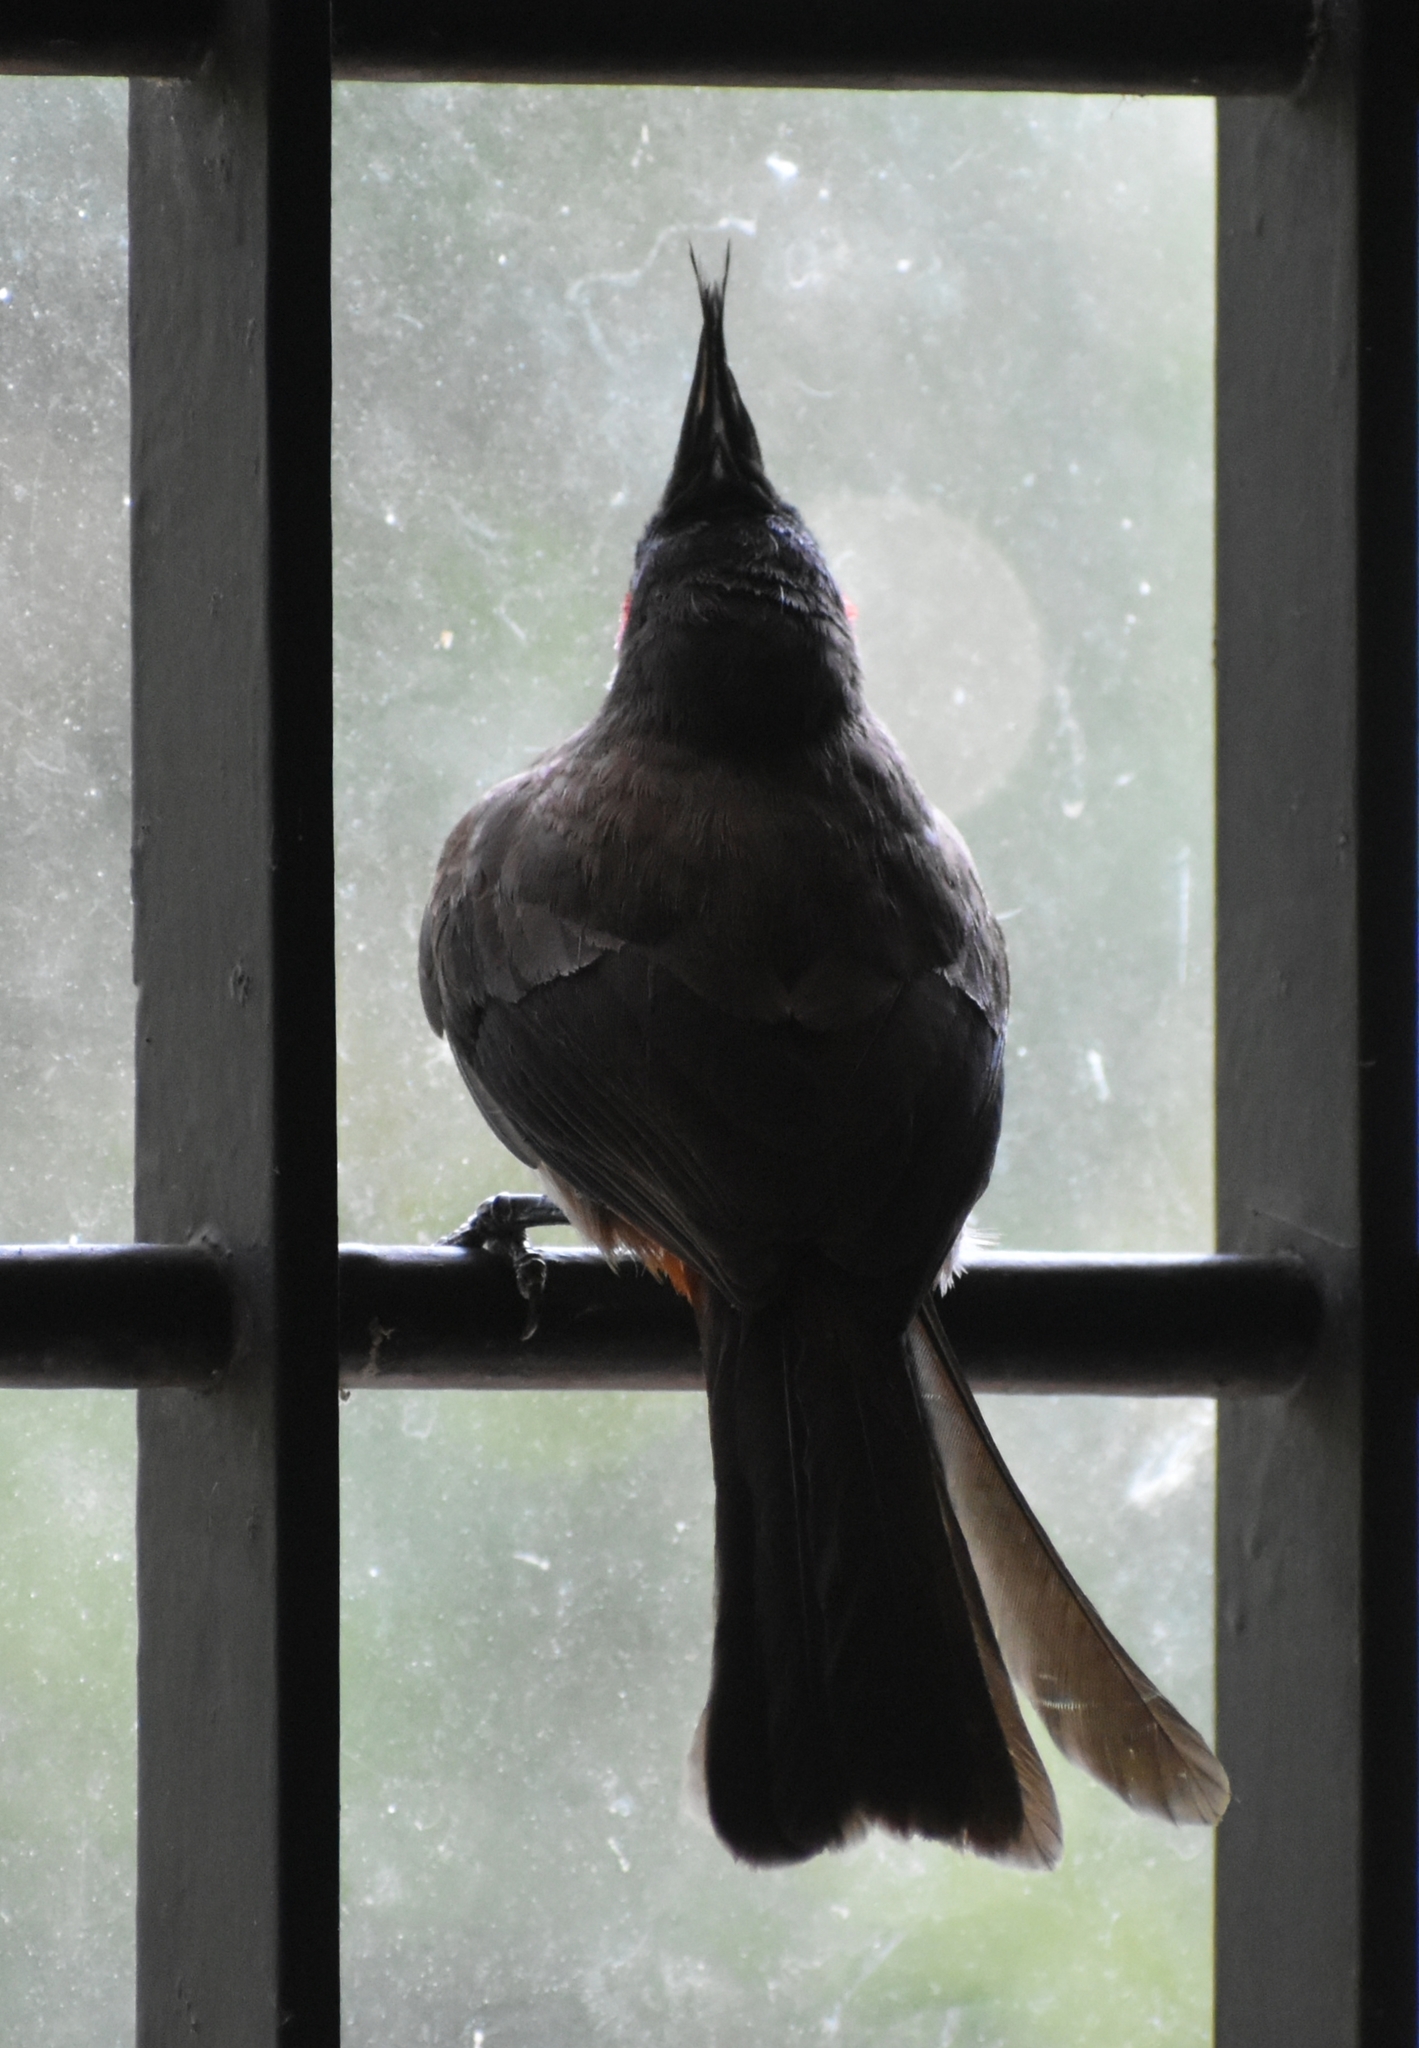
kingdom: Animalia
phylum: Chordata
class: Aves
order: Passeriformes
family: Pycnonotidae
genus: Pycnonotus
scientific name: Pycnonotus jocosus
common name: Red-whiskered bulbul
